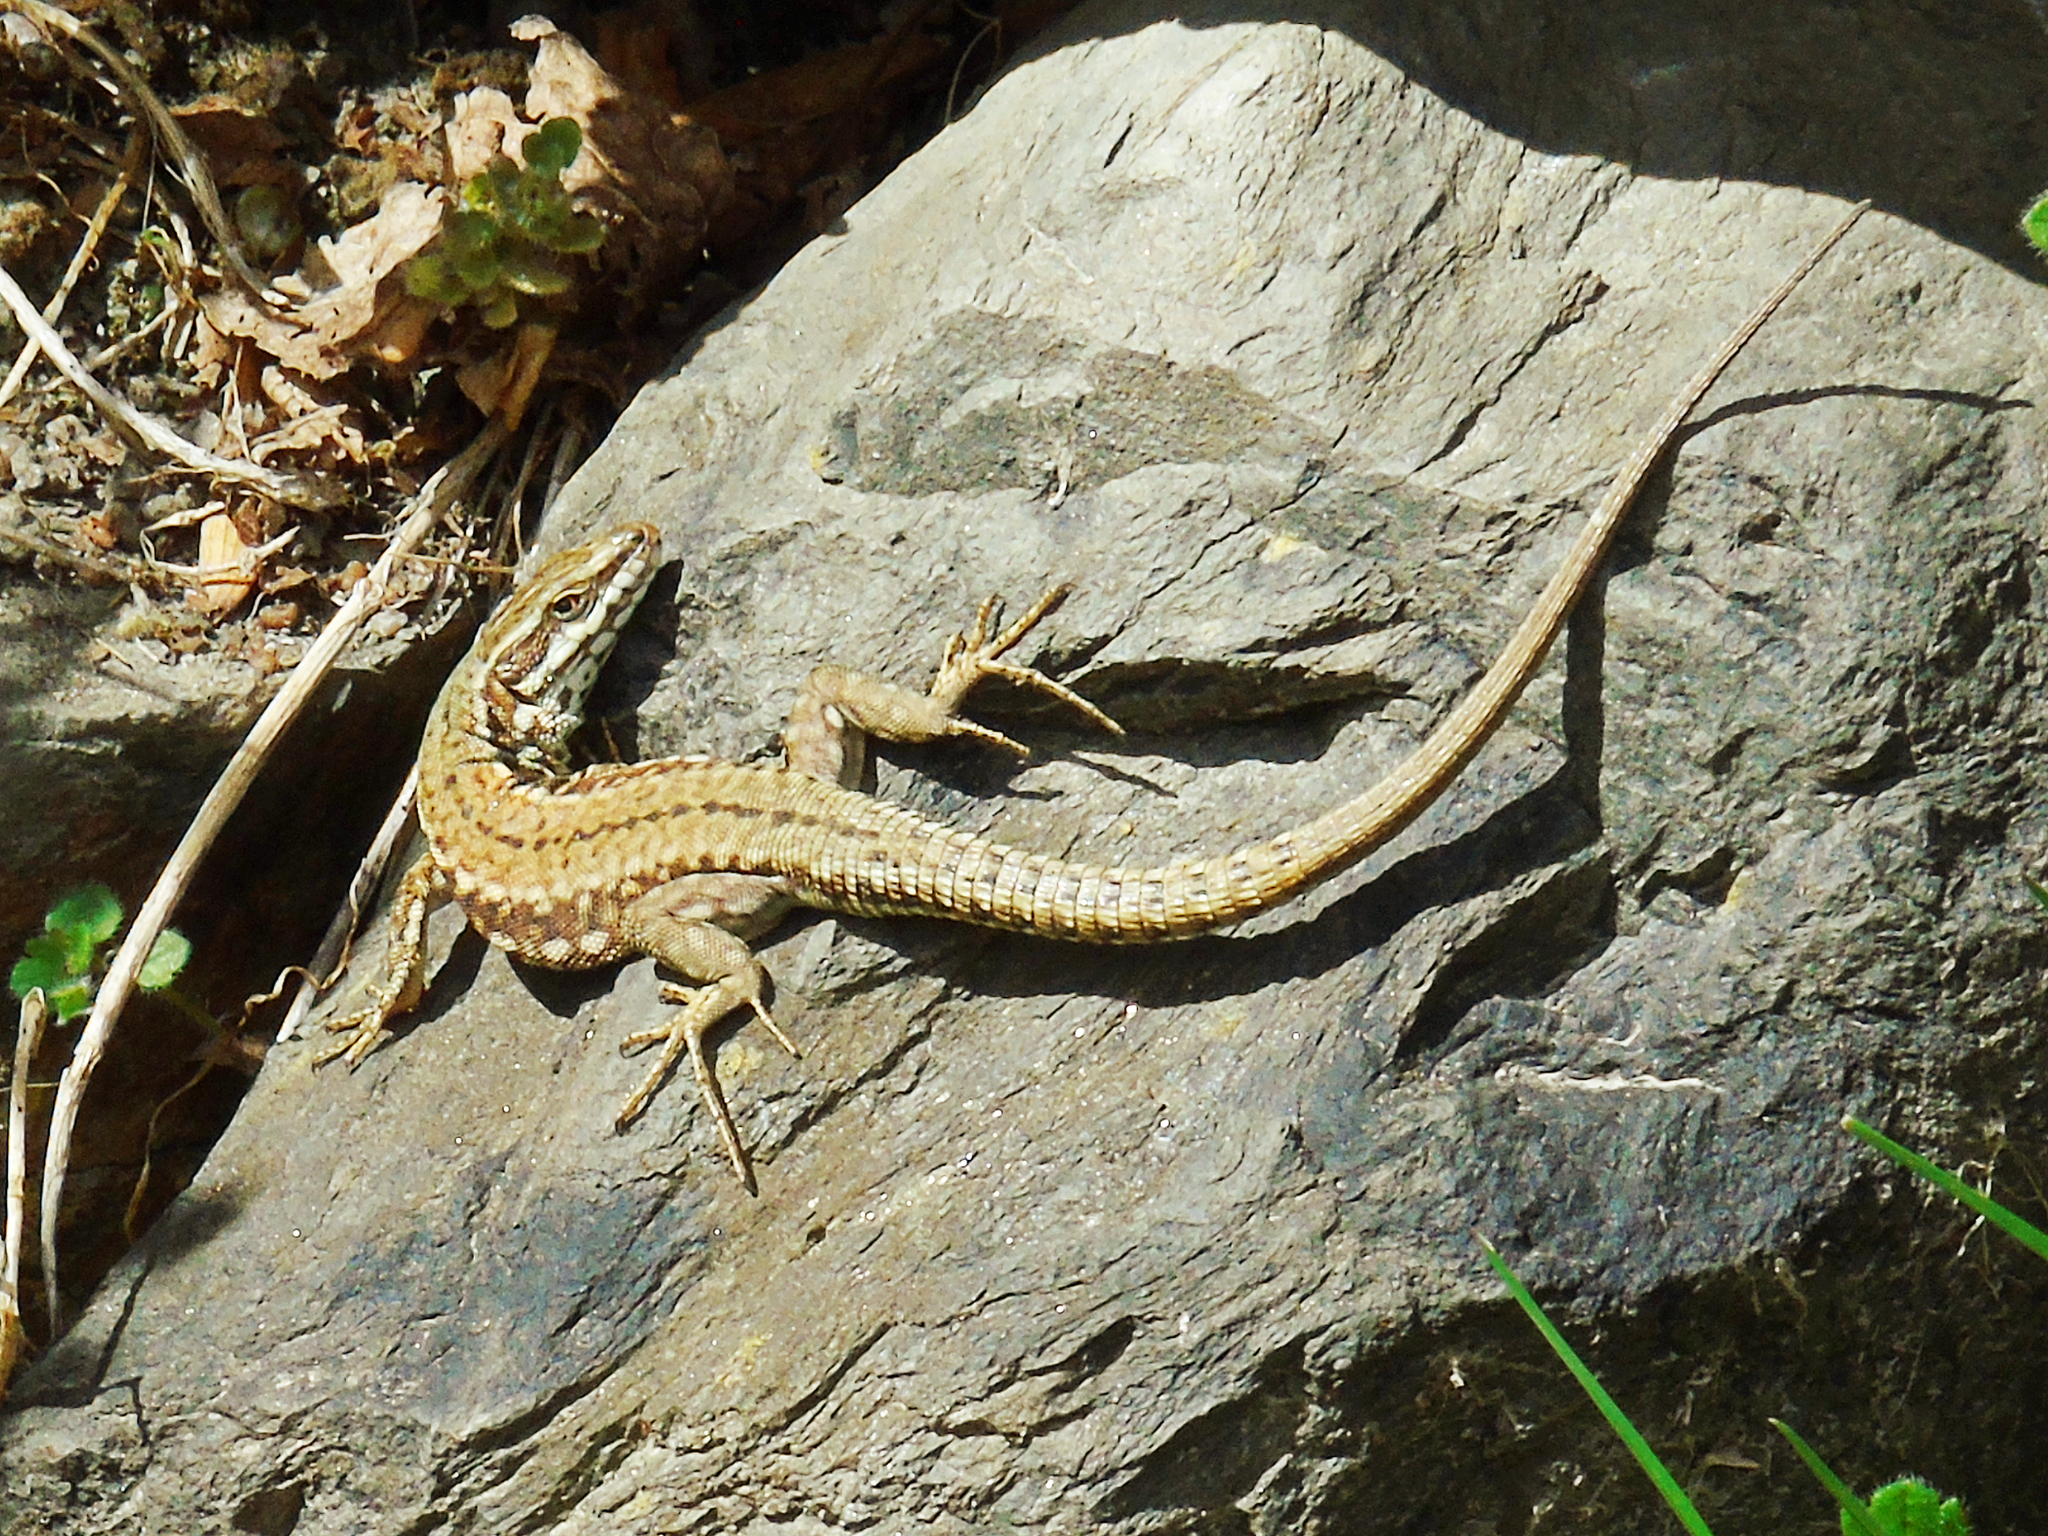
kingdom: Animalia
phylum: Chordata
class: Squamata
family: Lacertidae
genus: Podarcis
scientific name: Podarcis muralis
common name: Common wall lizard
